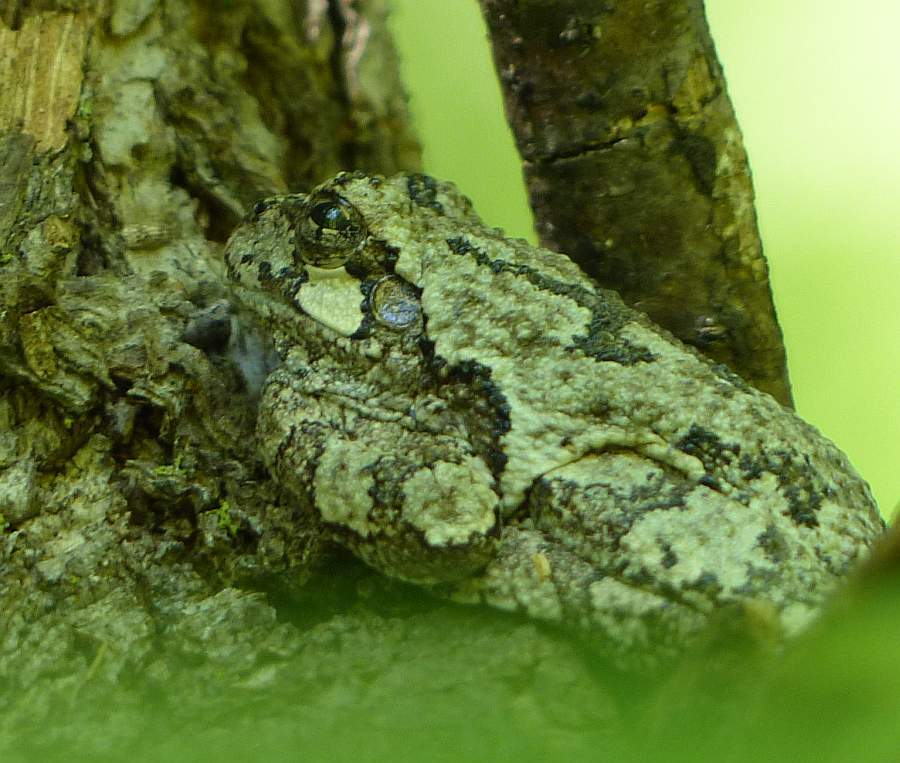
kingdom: Animalia
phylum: Chordata
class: Amphibia
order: Anura
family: Hylidae
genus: Dryophytes
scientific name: Dryophytes versicolor
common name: Gray treefrog
